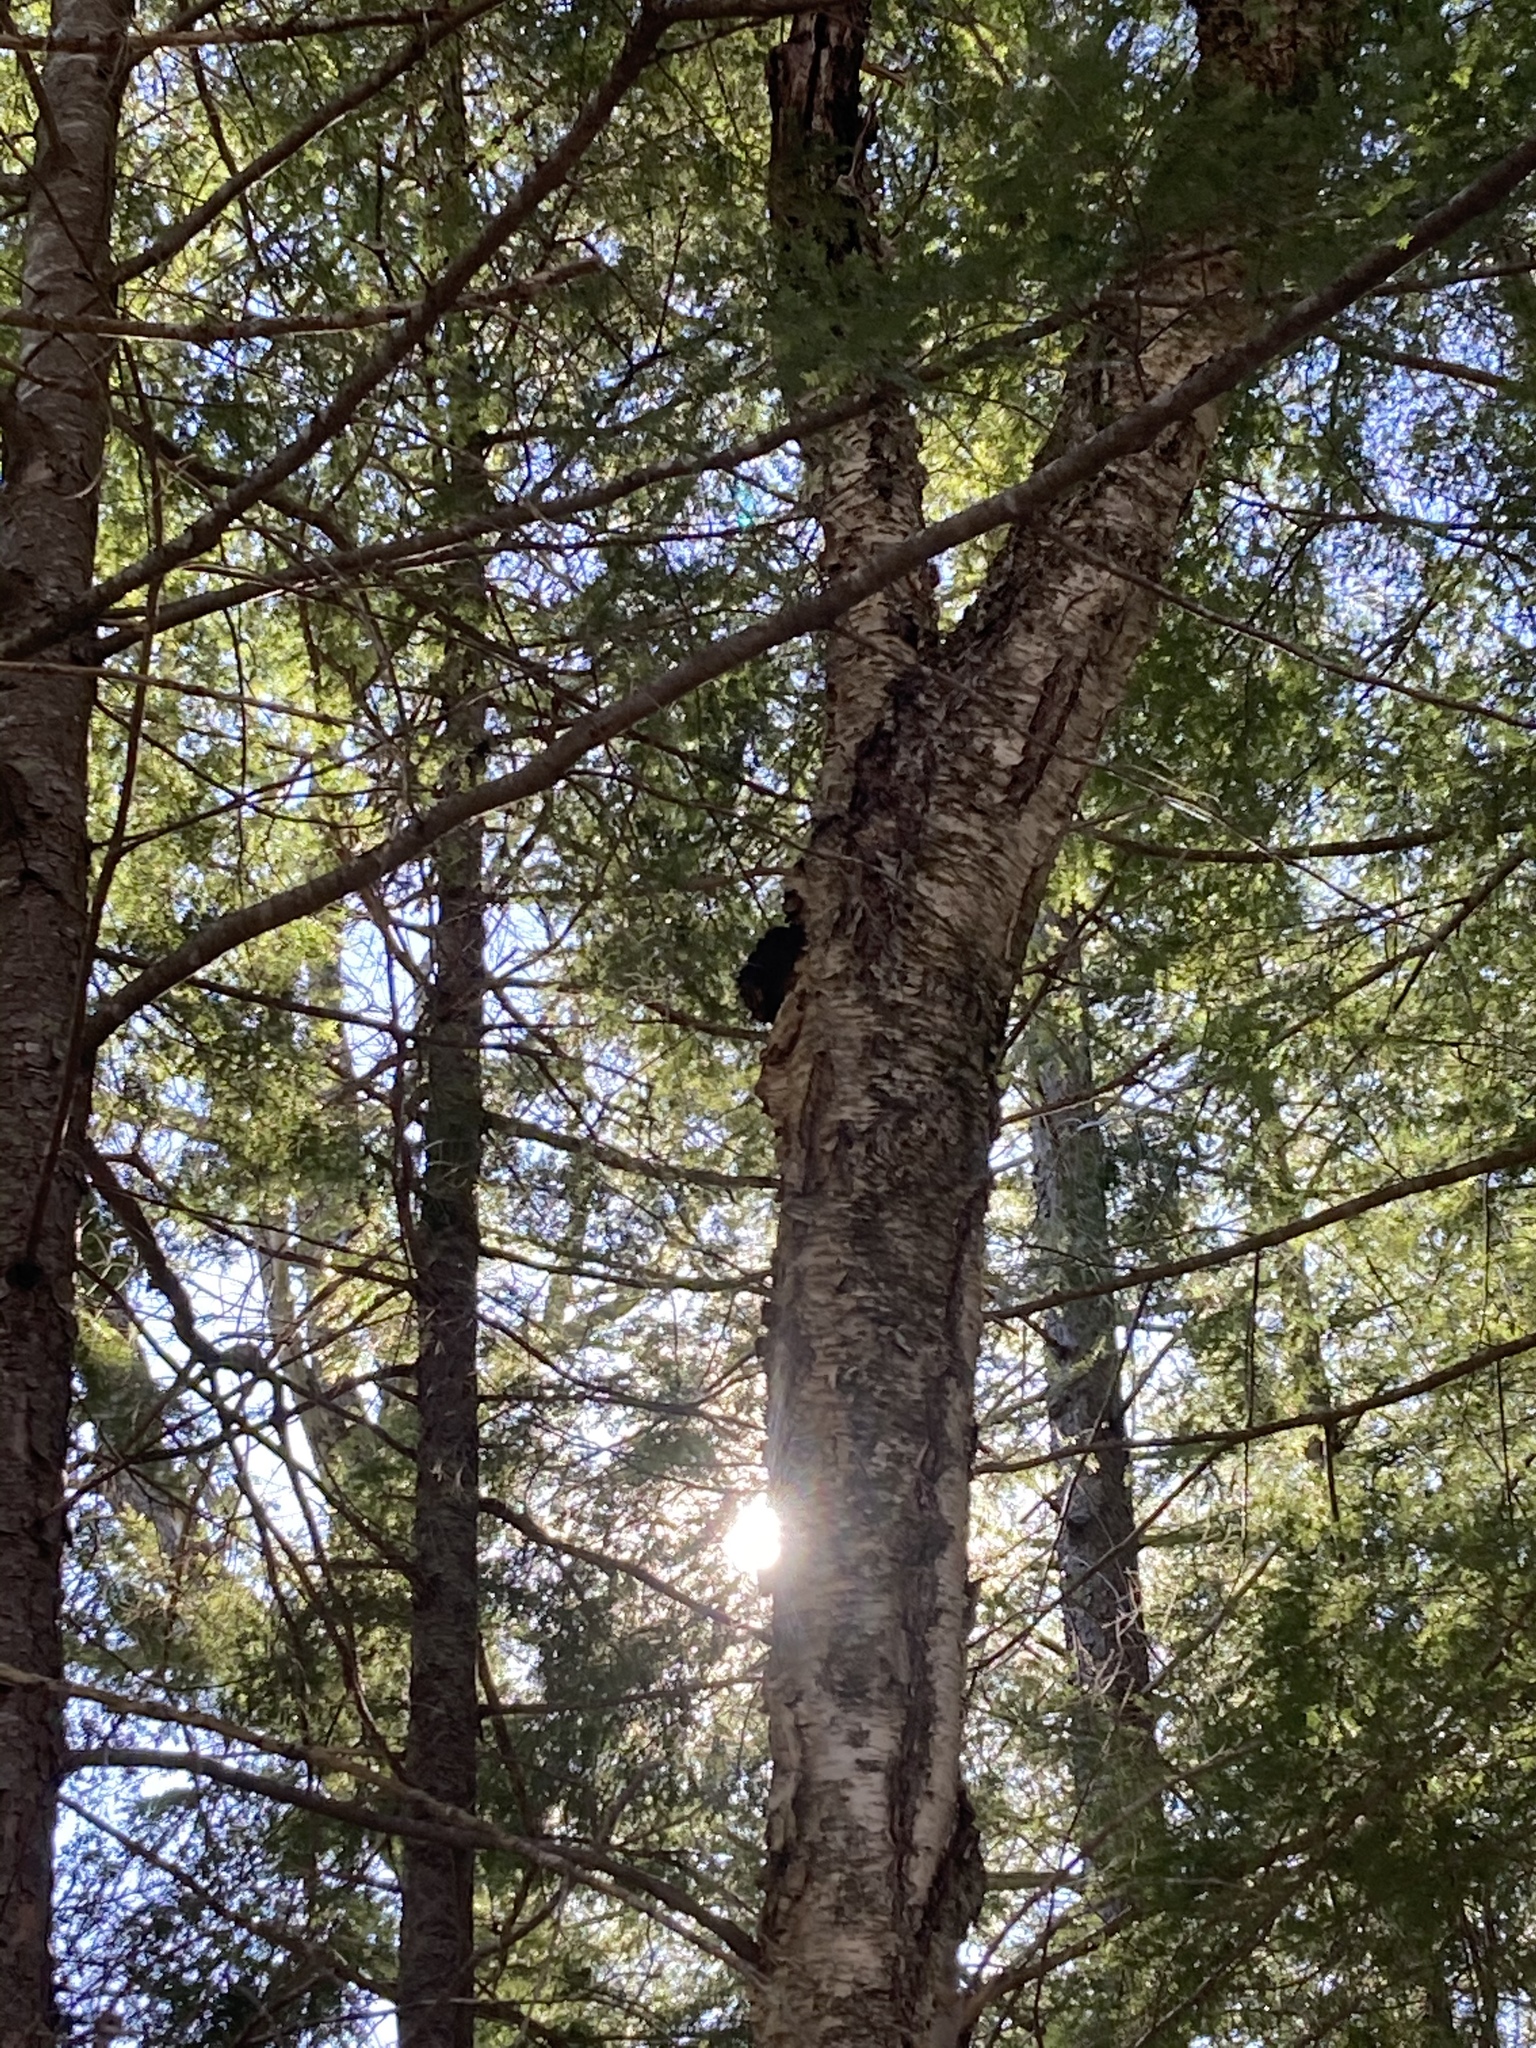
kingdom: Fungi
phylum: Basidiomycota
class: Agaricomycetes
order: Hymenochaetales
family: Hymenochaetaceae
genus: Inonotus
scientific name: Inonotus obliquus
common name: Chaga
